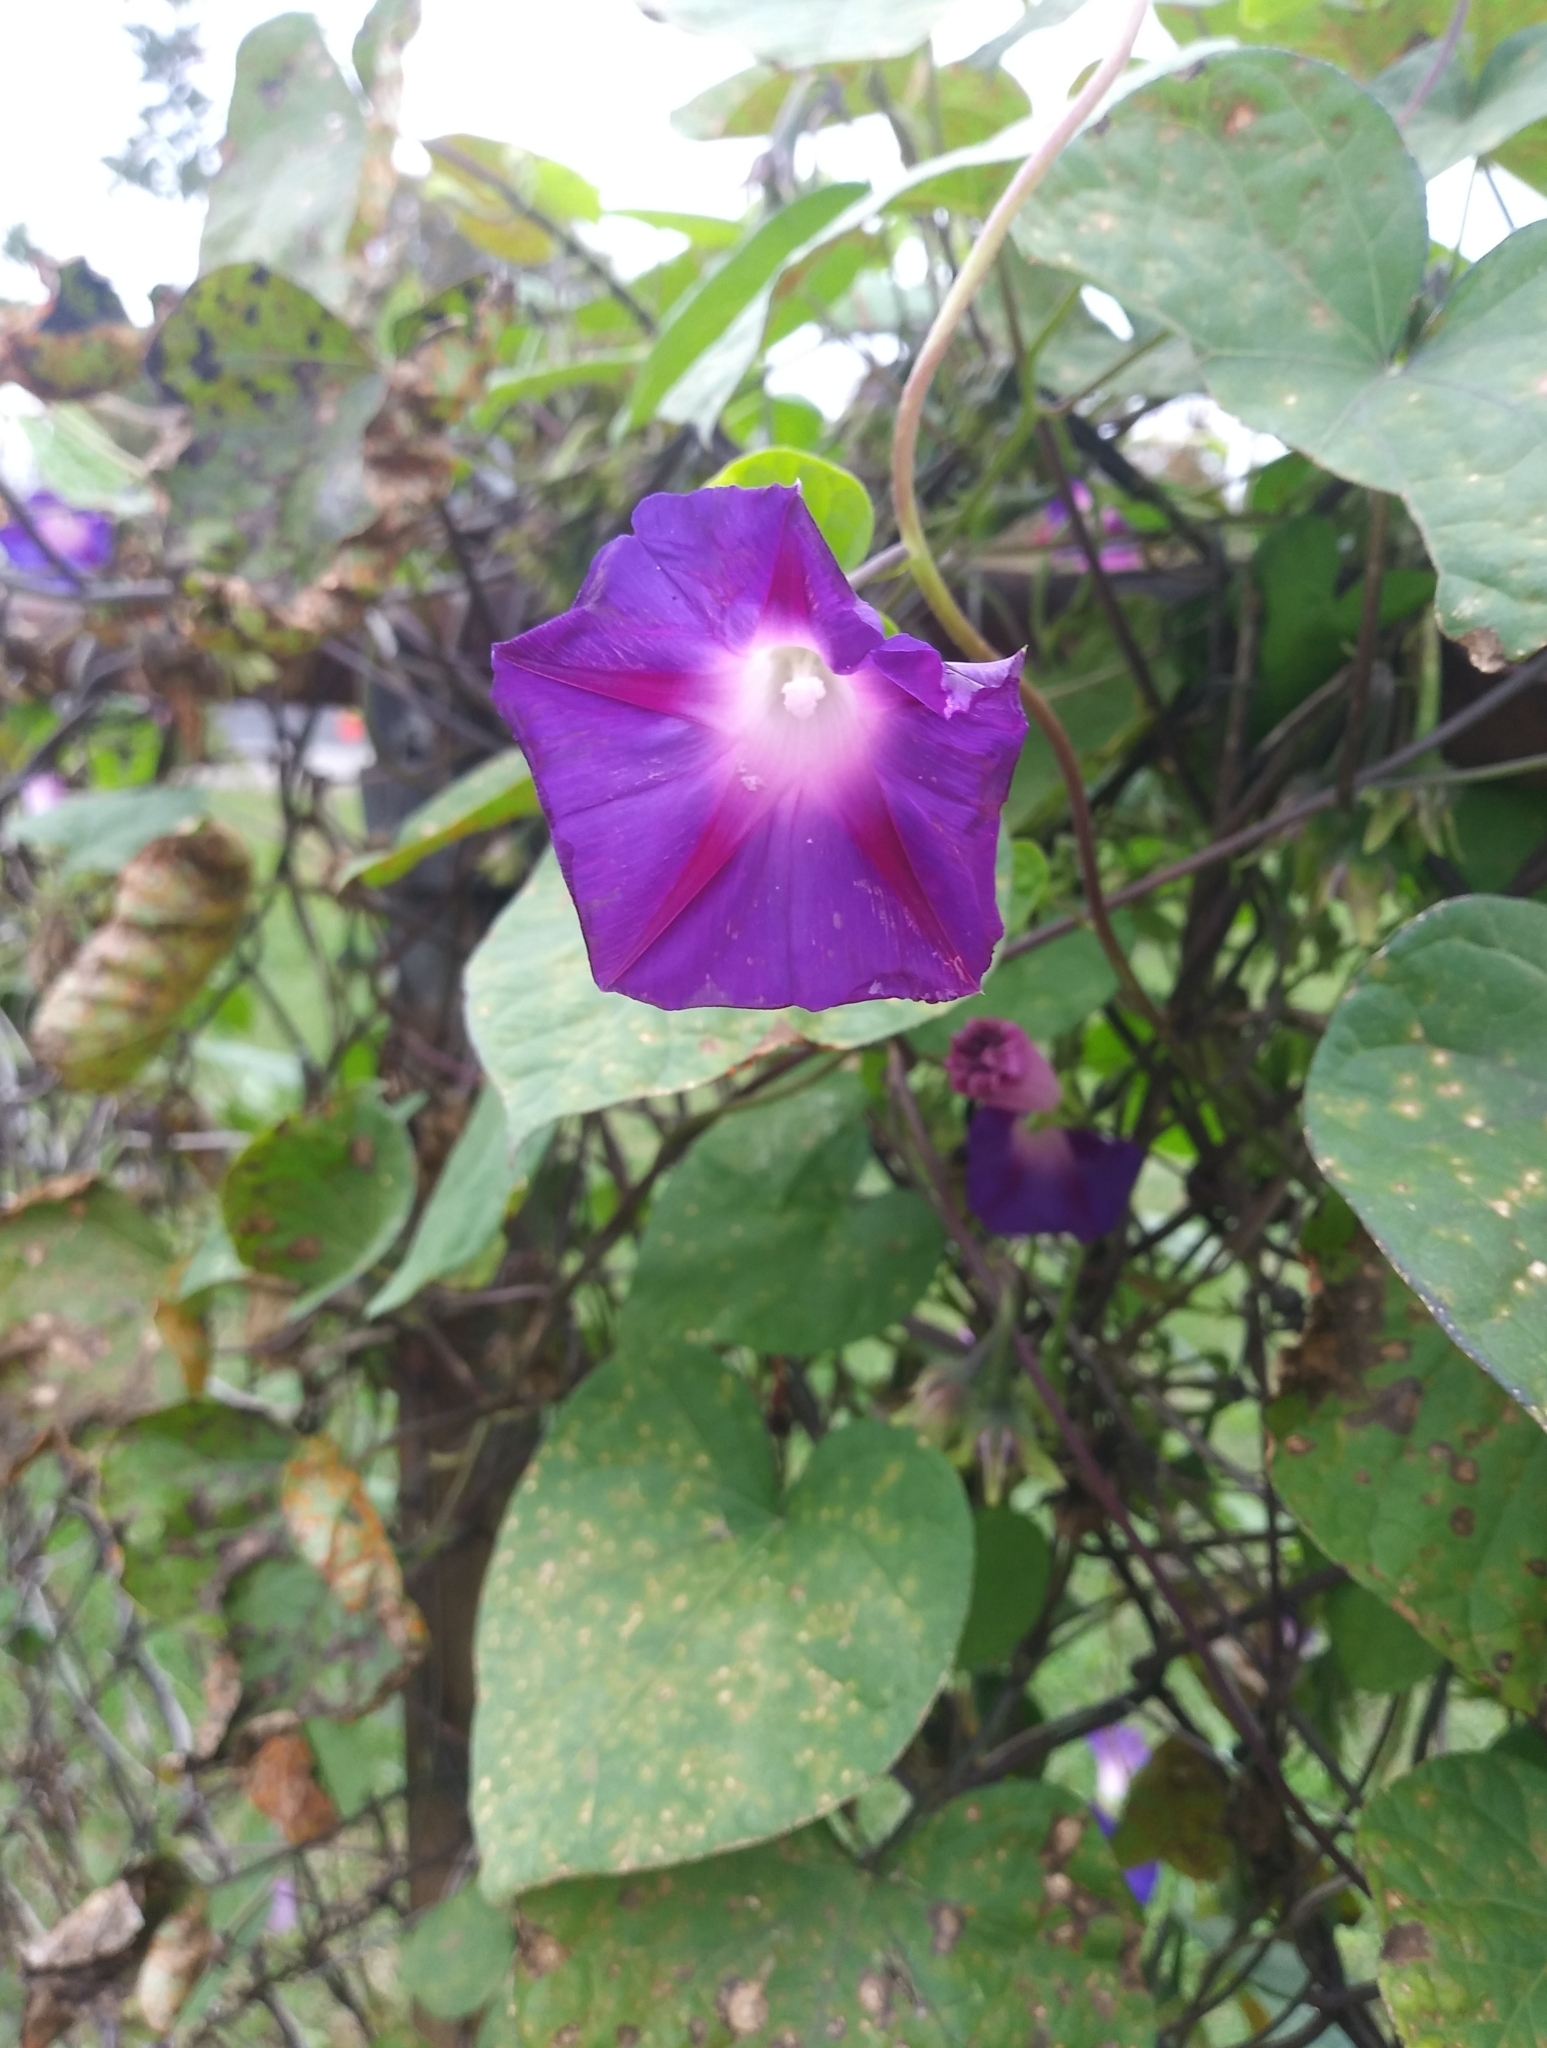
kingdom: Plantae
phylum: Tracheophyta
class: Magnoliopsida
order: Solanales
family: Convolvulaceae
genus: Ipomoea
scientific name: Ipomoea purpurea
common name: Common morning-glory
